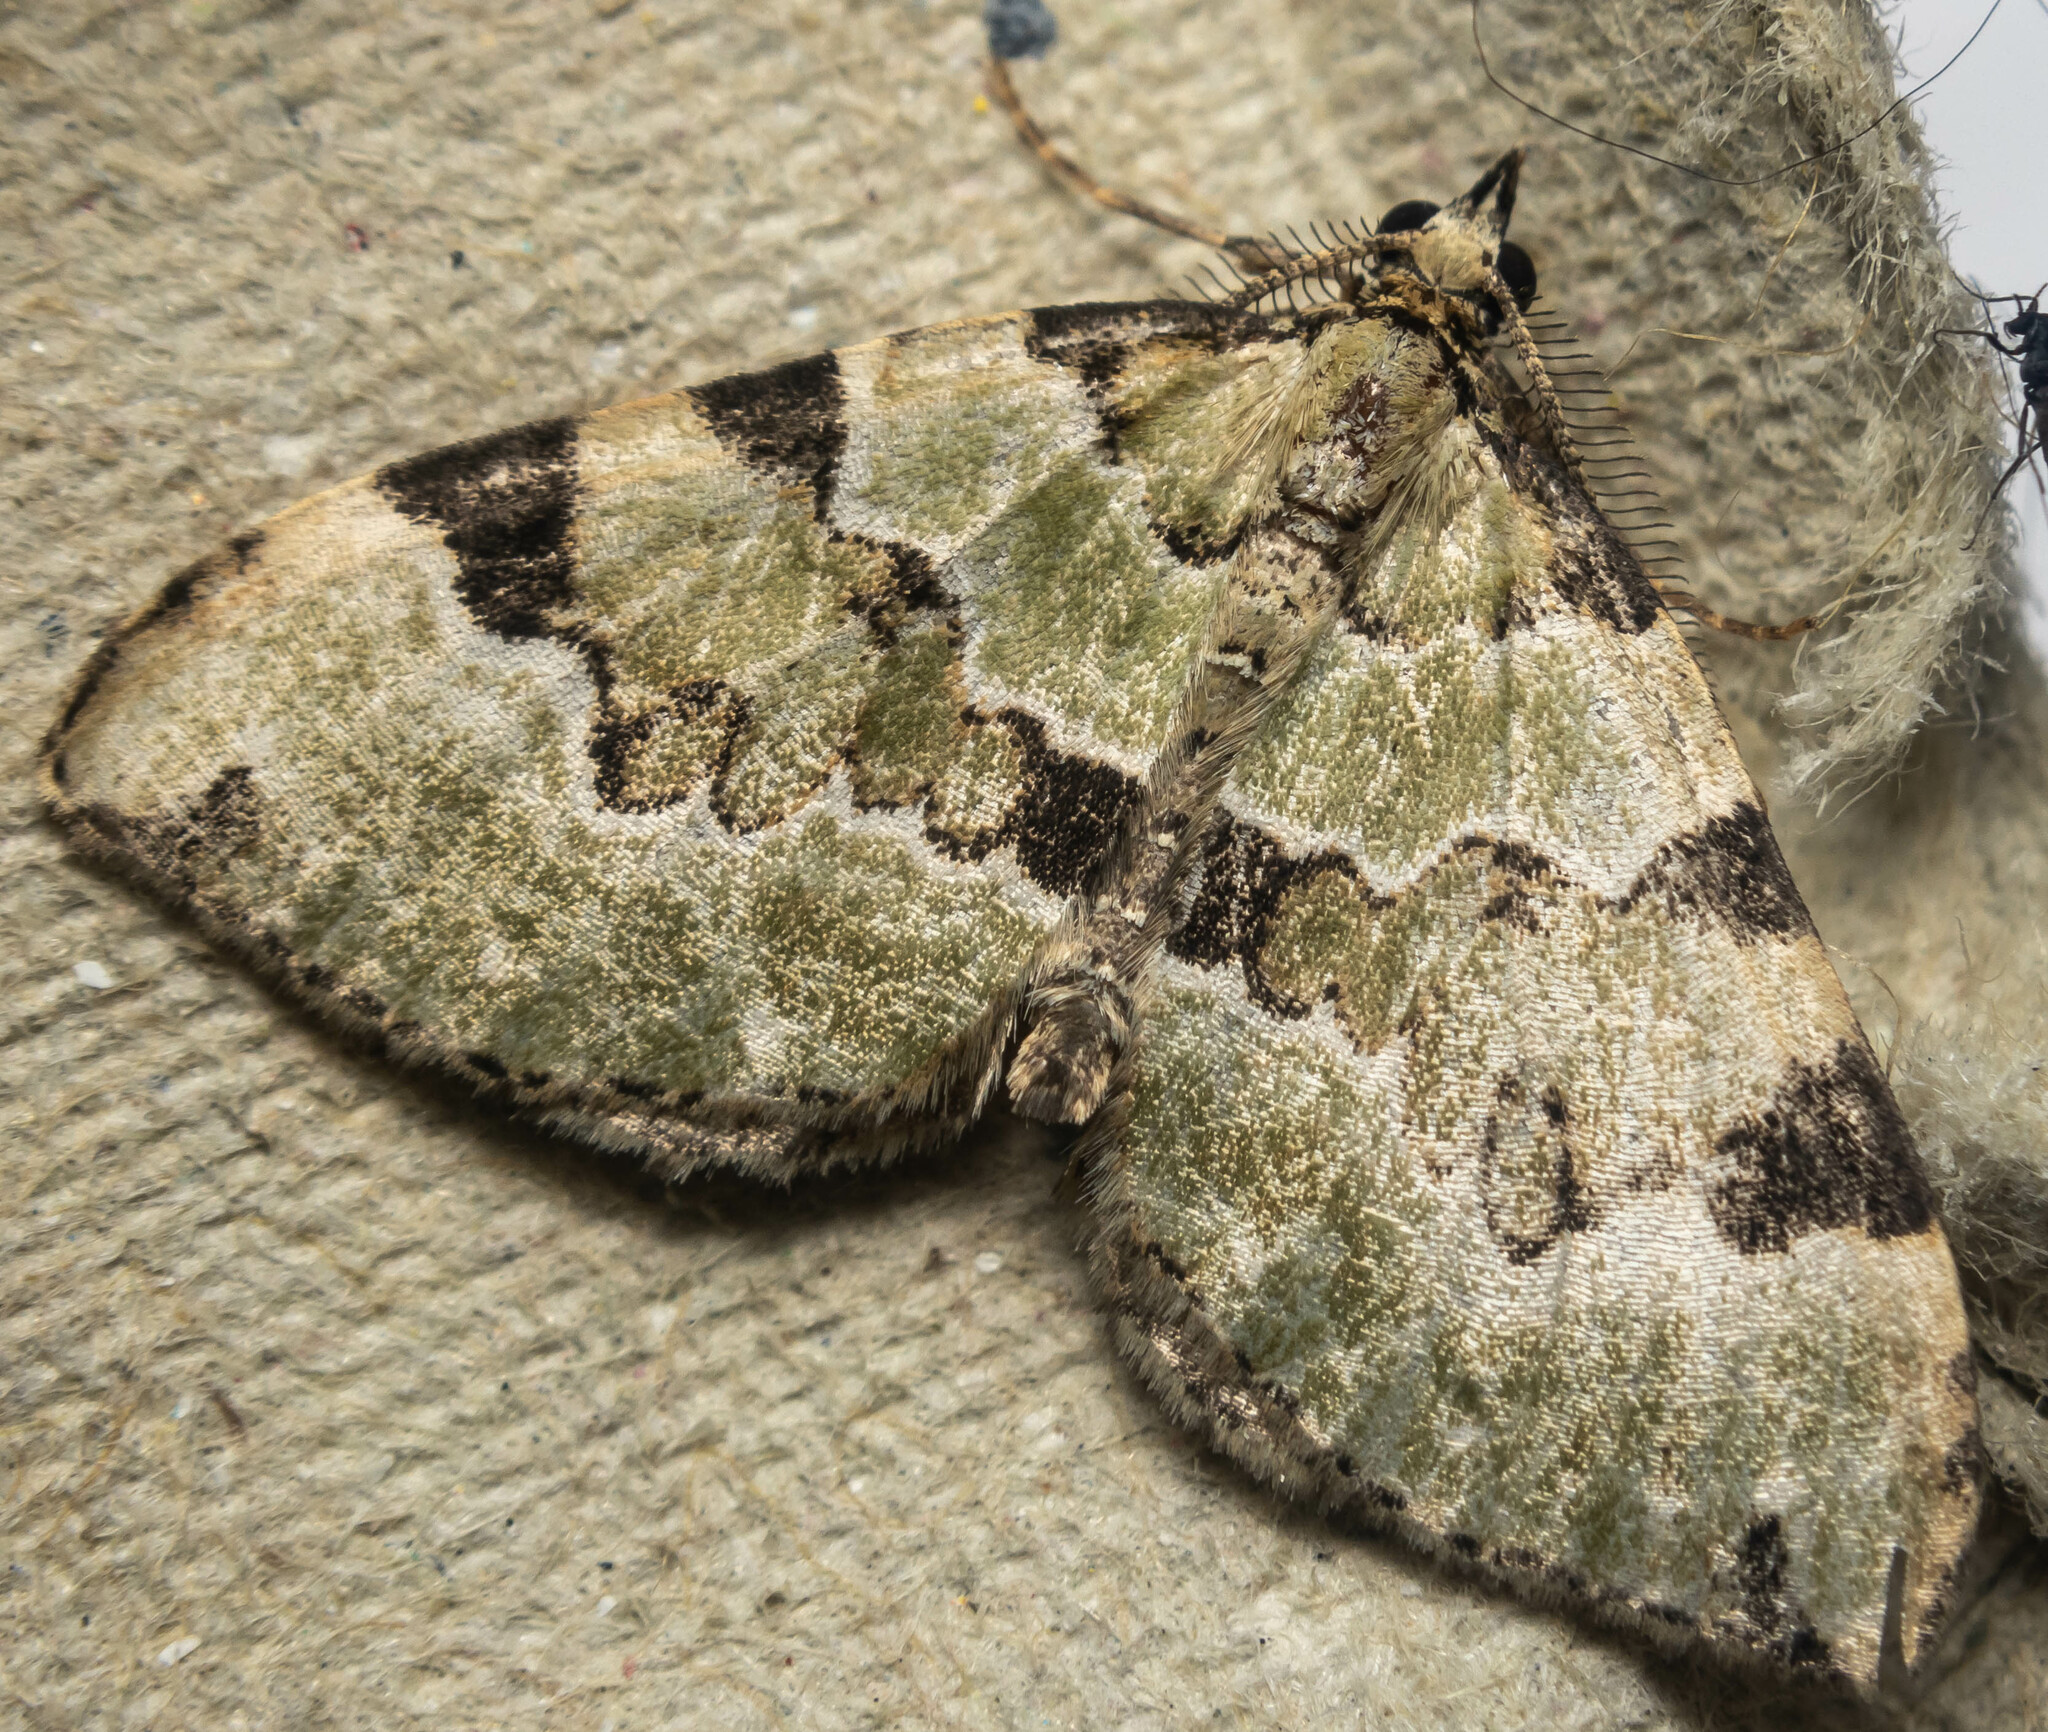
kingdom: Animalia
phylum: Arthropoda
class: Insecta
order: Lepidoptera
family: Geometridae
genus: Colostygia
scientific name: Colostygia pectinataria
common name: Green carpet
